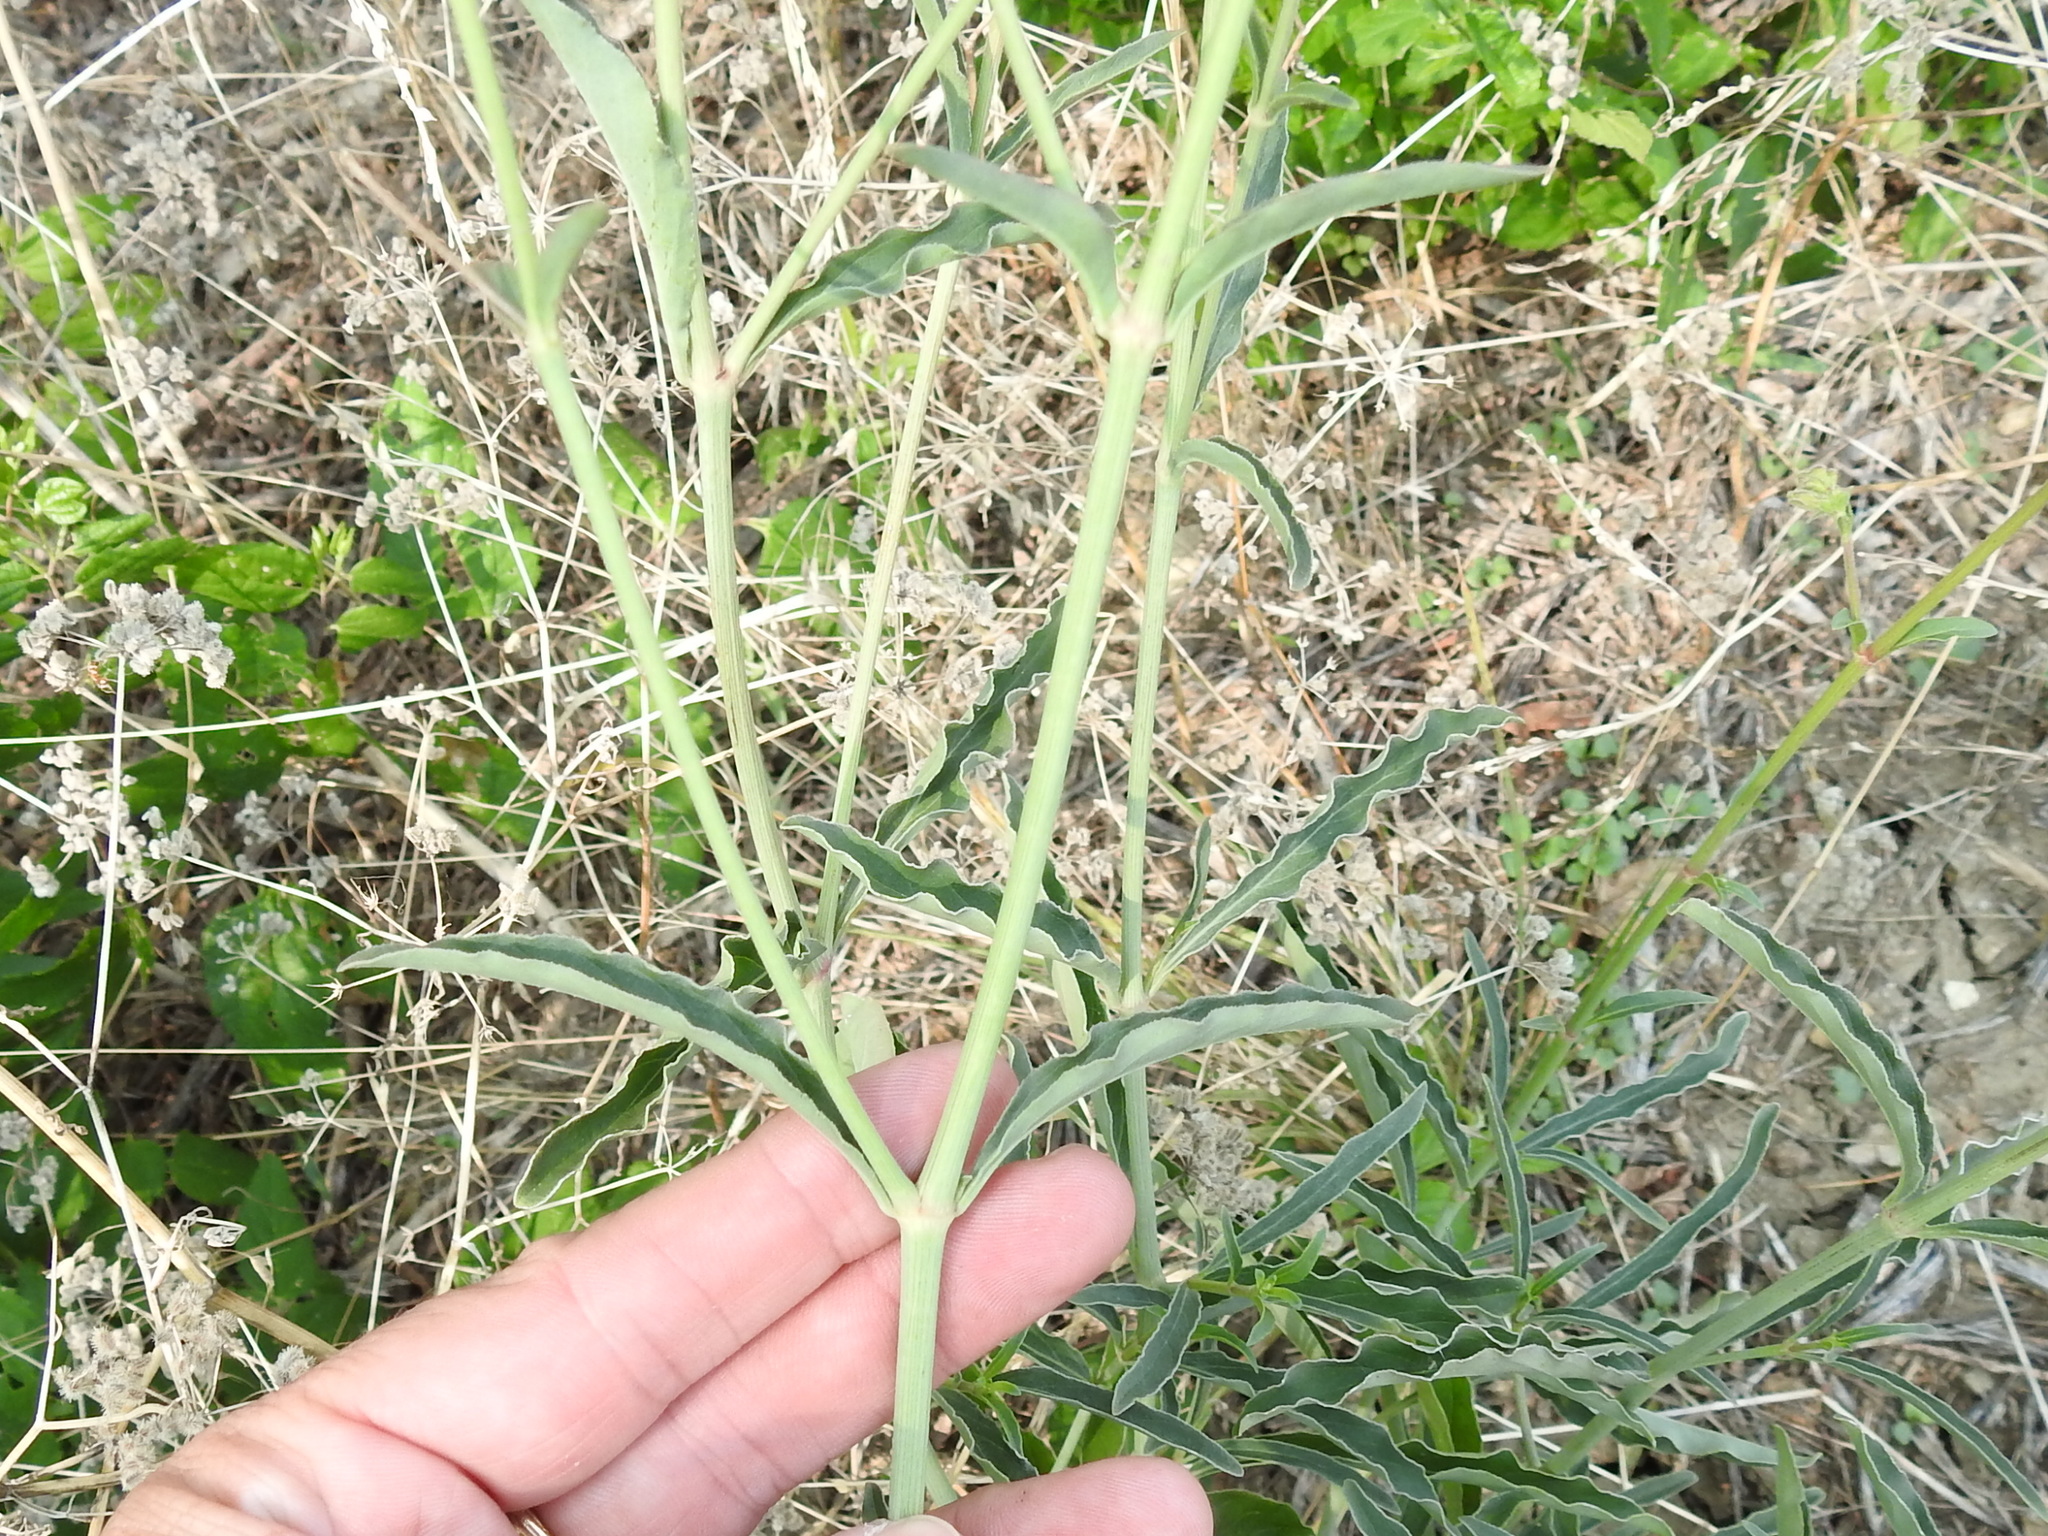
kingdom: Plantae
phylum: Tracheophyta
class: Magnoliopsida
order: Caryophyllales
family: Nyctaginaceae
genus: Mirabilis
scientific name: Mirabilis albida
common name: Hairy four-o'clock
